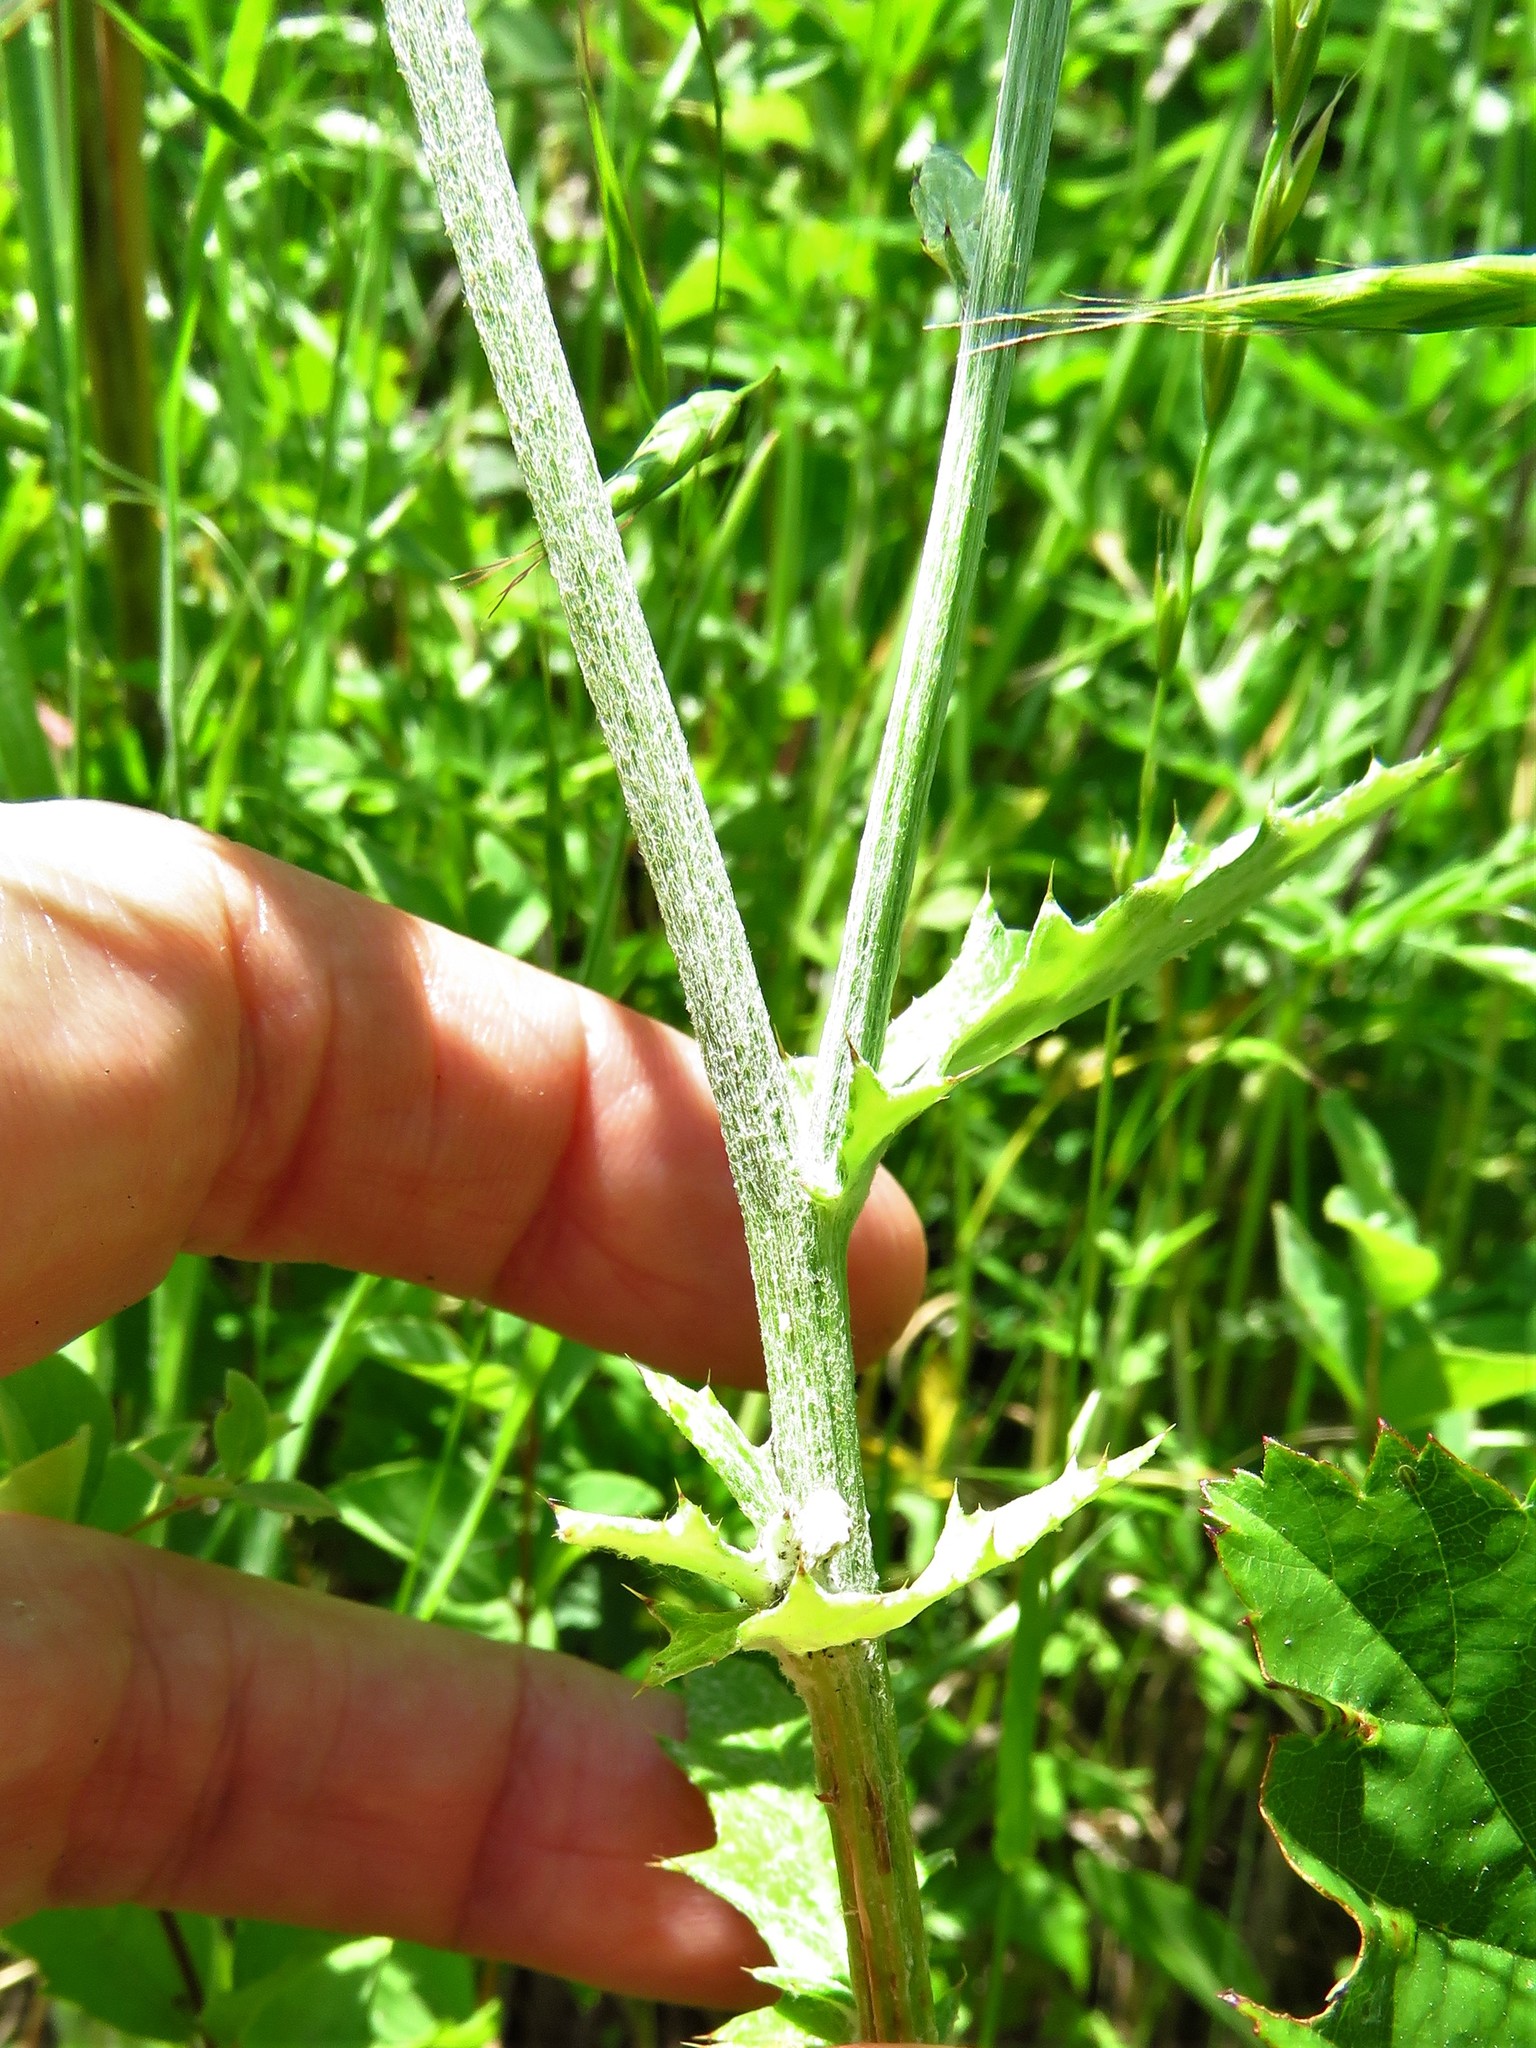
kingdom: Plantae
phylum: Tracheophyta
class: Magnoliopsida
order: Asterales
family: Asteraceae
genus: Cirsium
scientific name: Cirsium texanum
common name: Texas purple thistle
